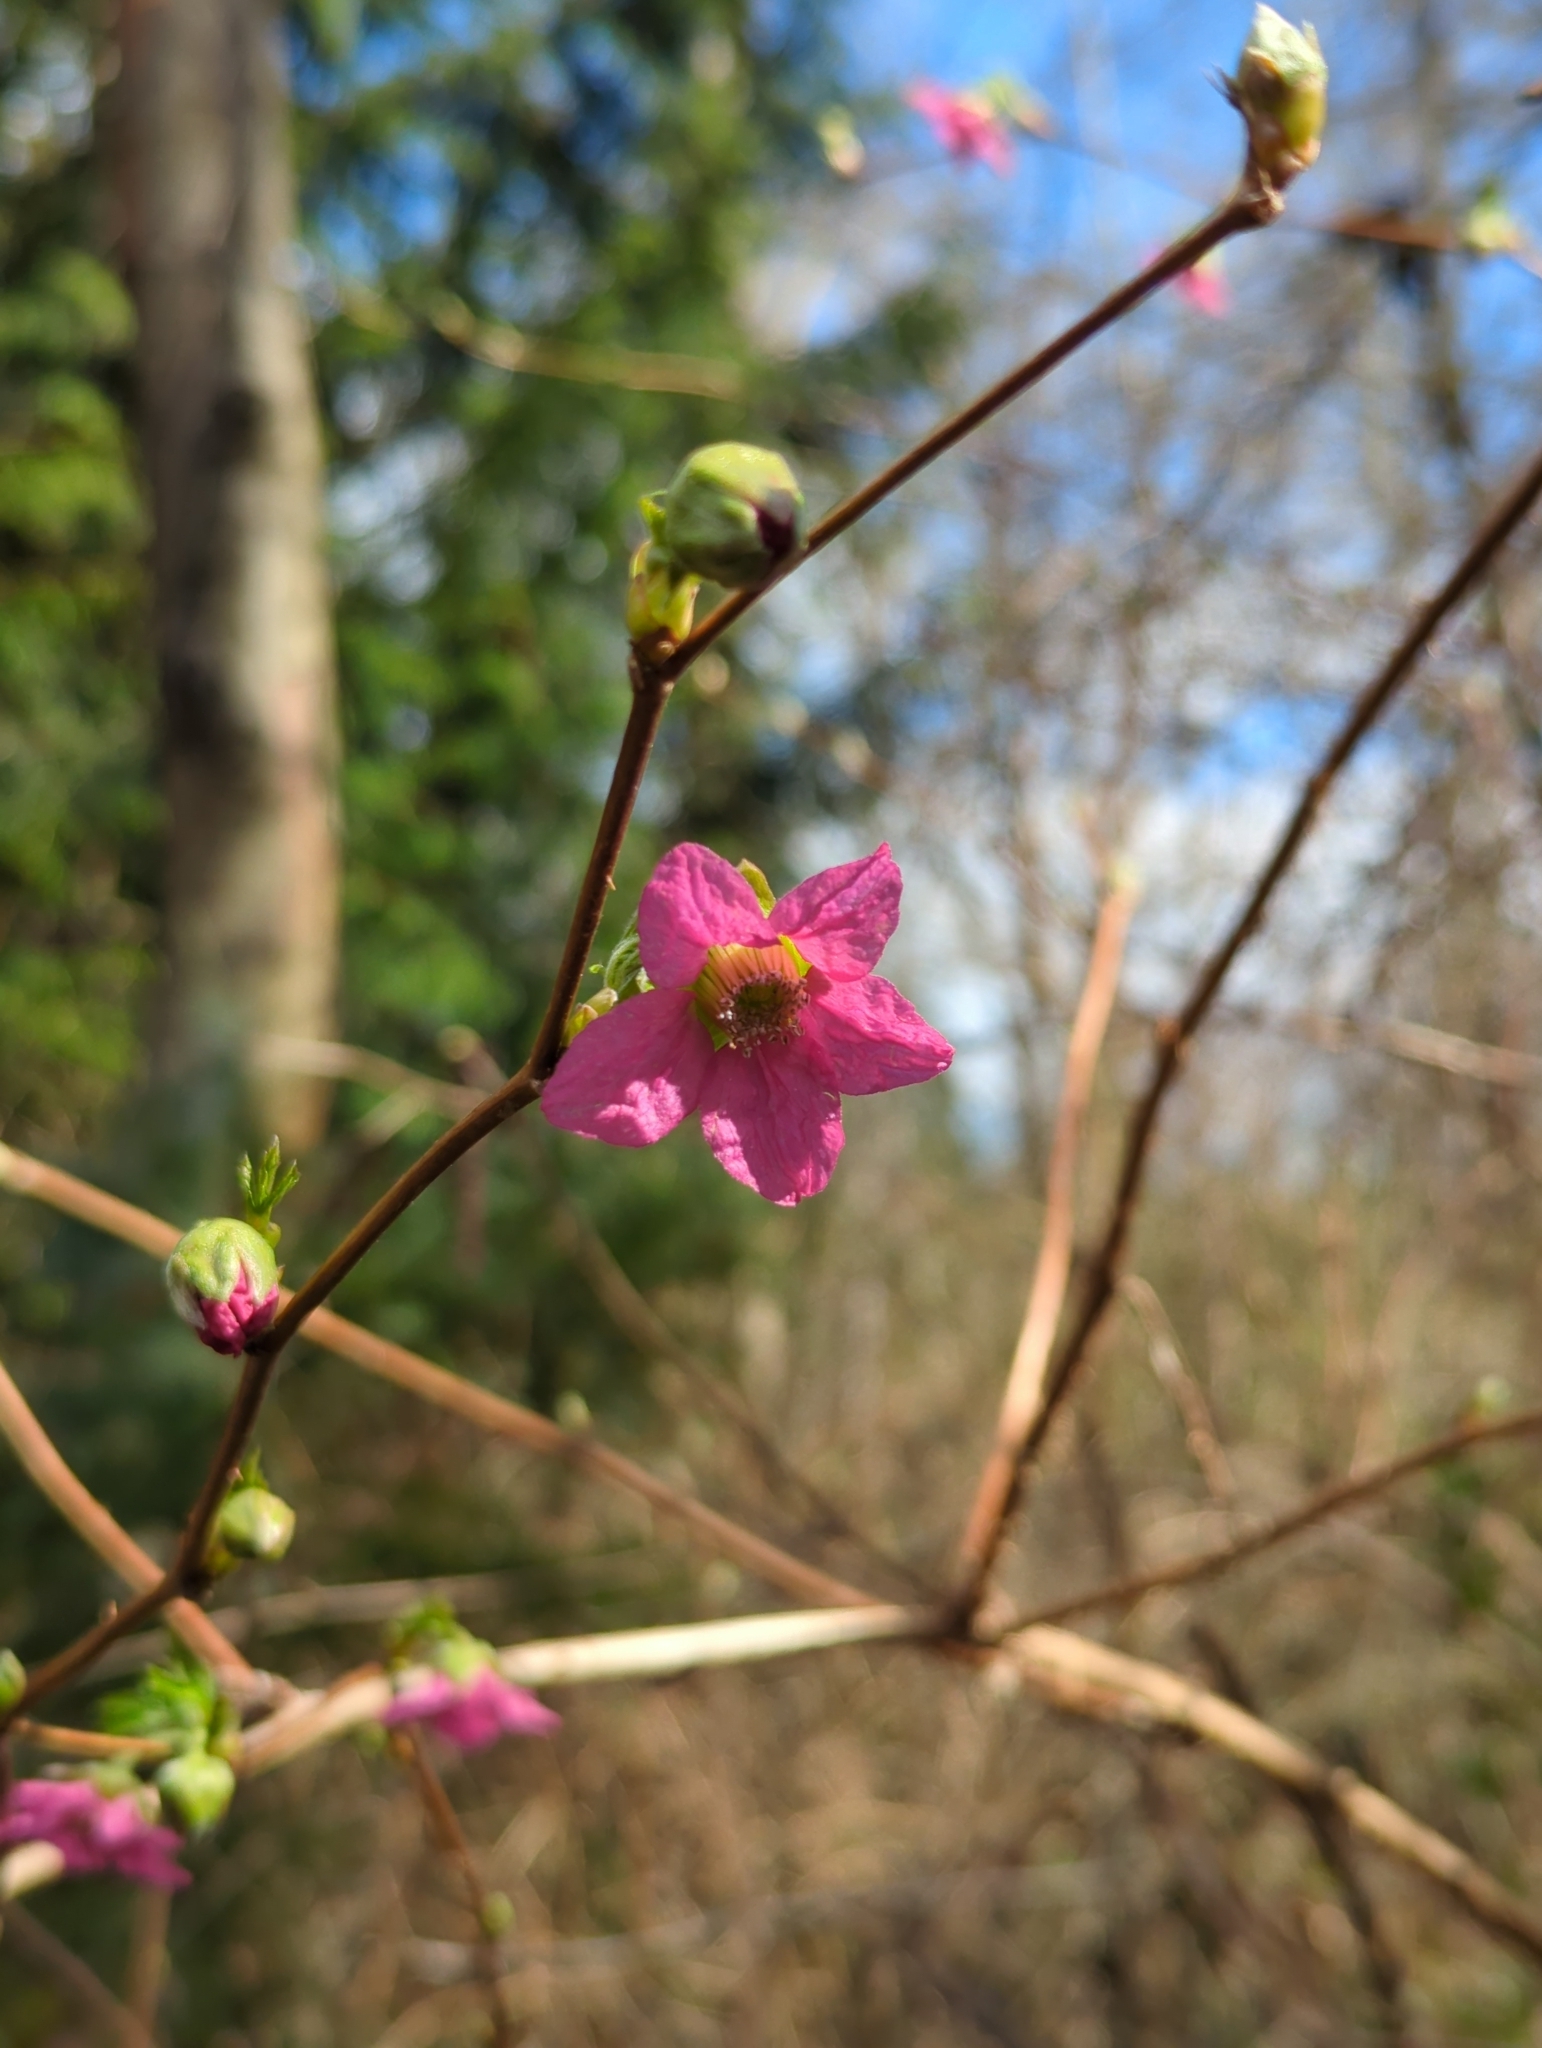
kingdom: Plantae
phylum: Tracheophyta
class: Magnoliopsida
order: Rosales
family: Rosaceae
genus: Rubus
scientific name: Rubus spectabilis
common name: Salmonberry
